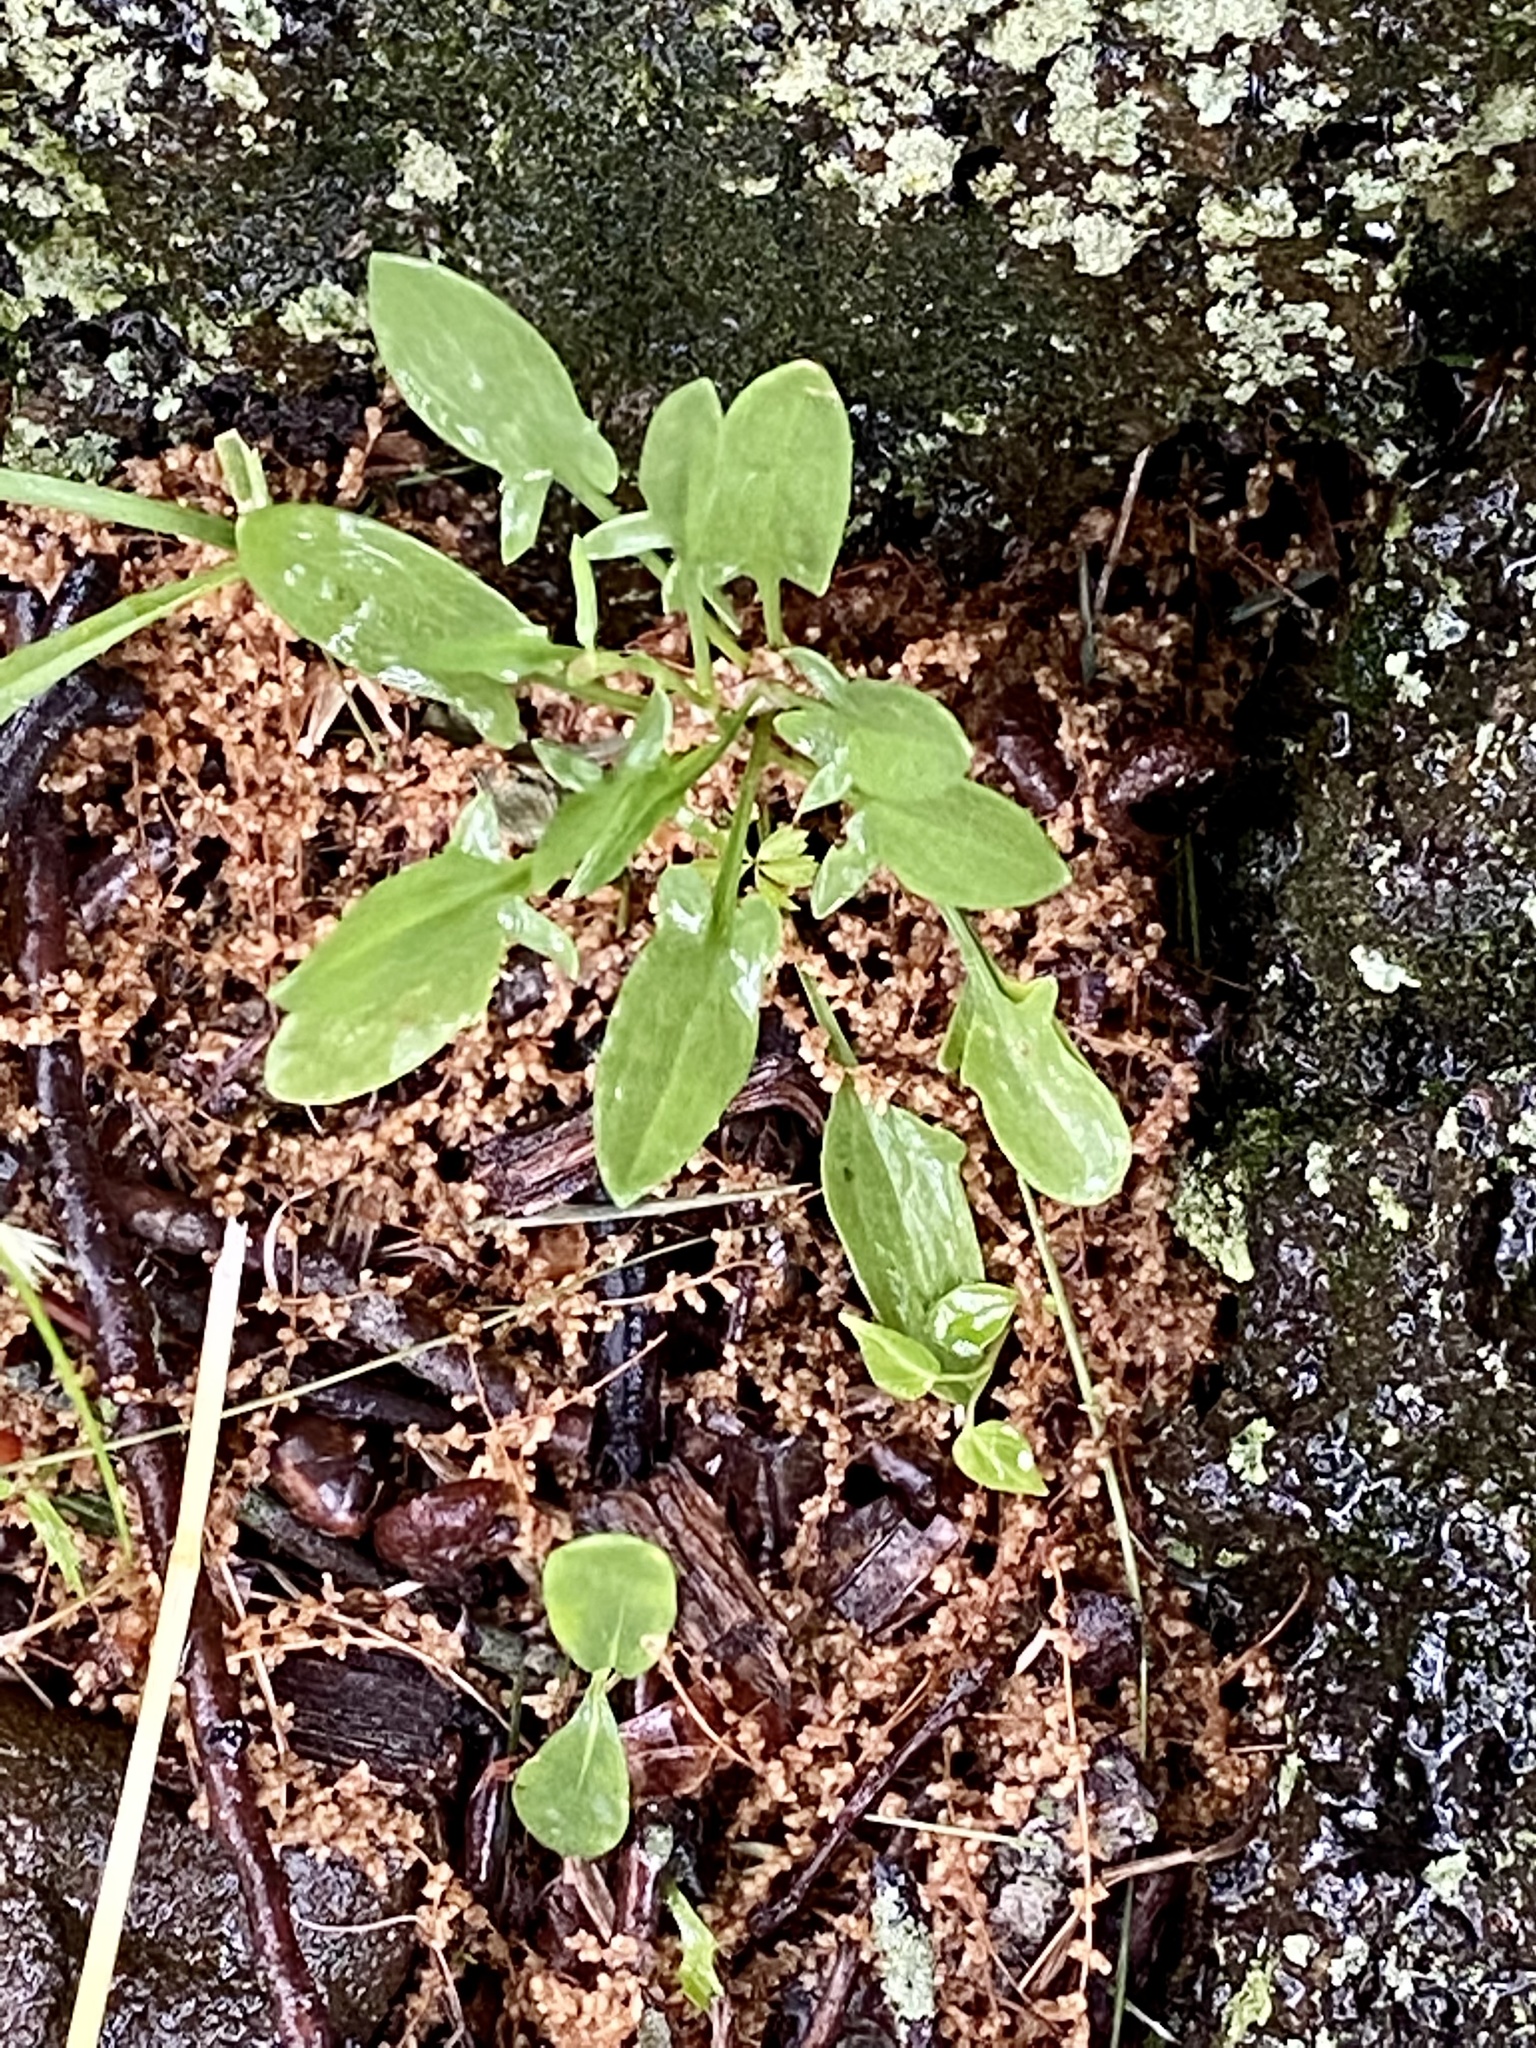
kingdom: Plantae
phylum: Tracheophyta
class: Magnoliopsida
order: Caryophyllales
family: Polygonaceae
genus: Rumex
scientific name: Rumex acetosella
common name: Common sheep sorrel
